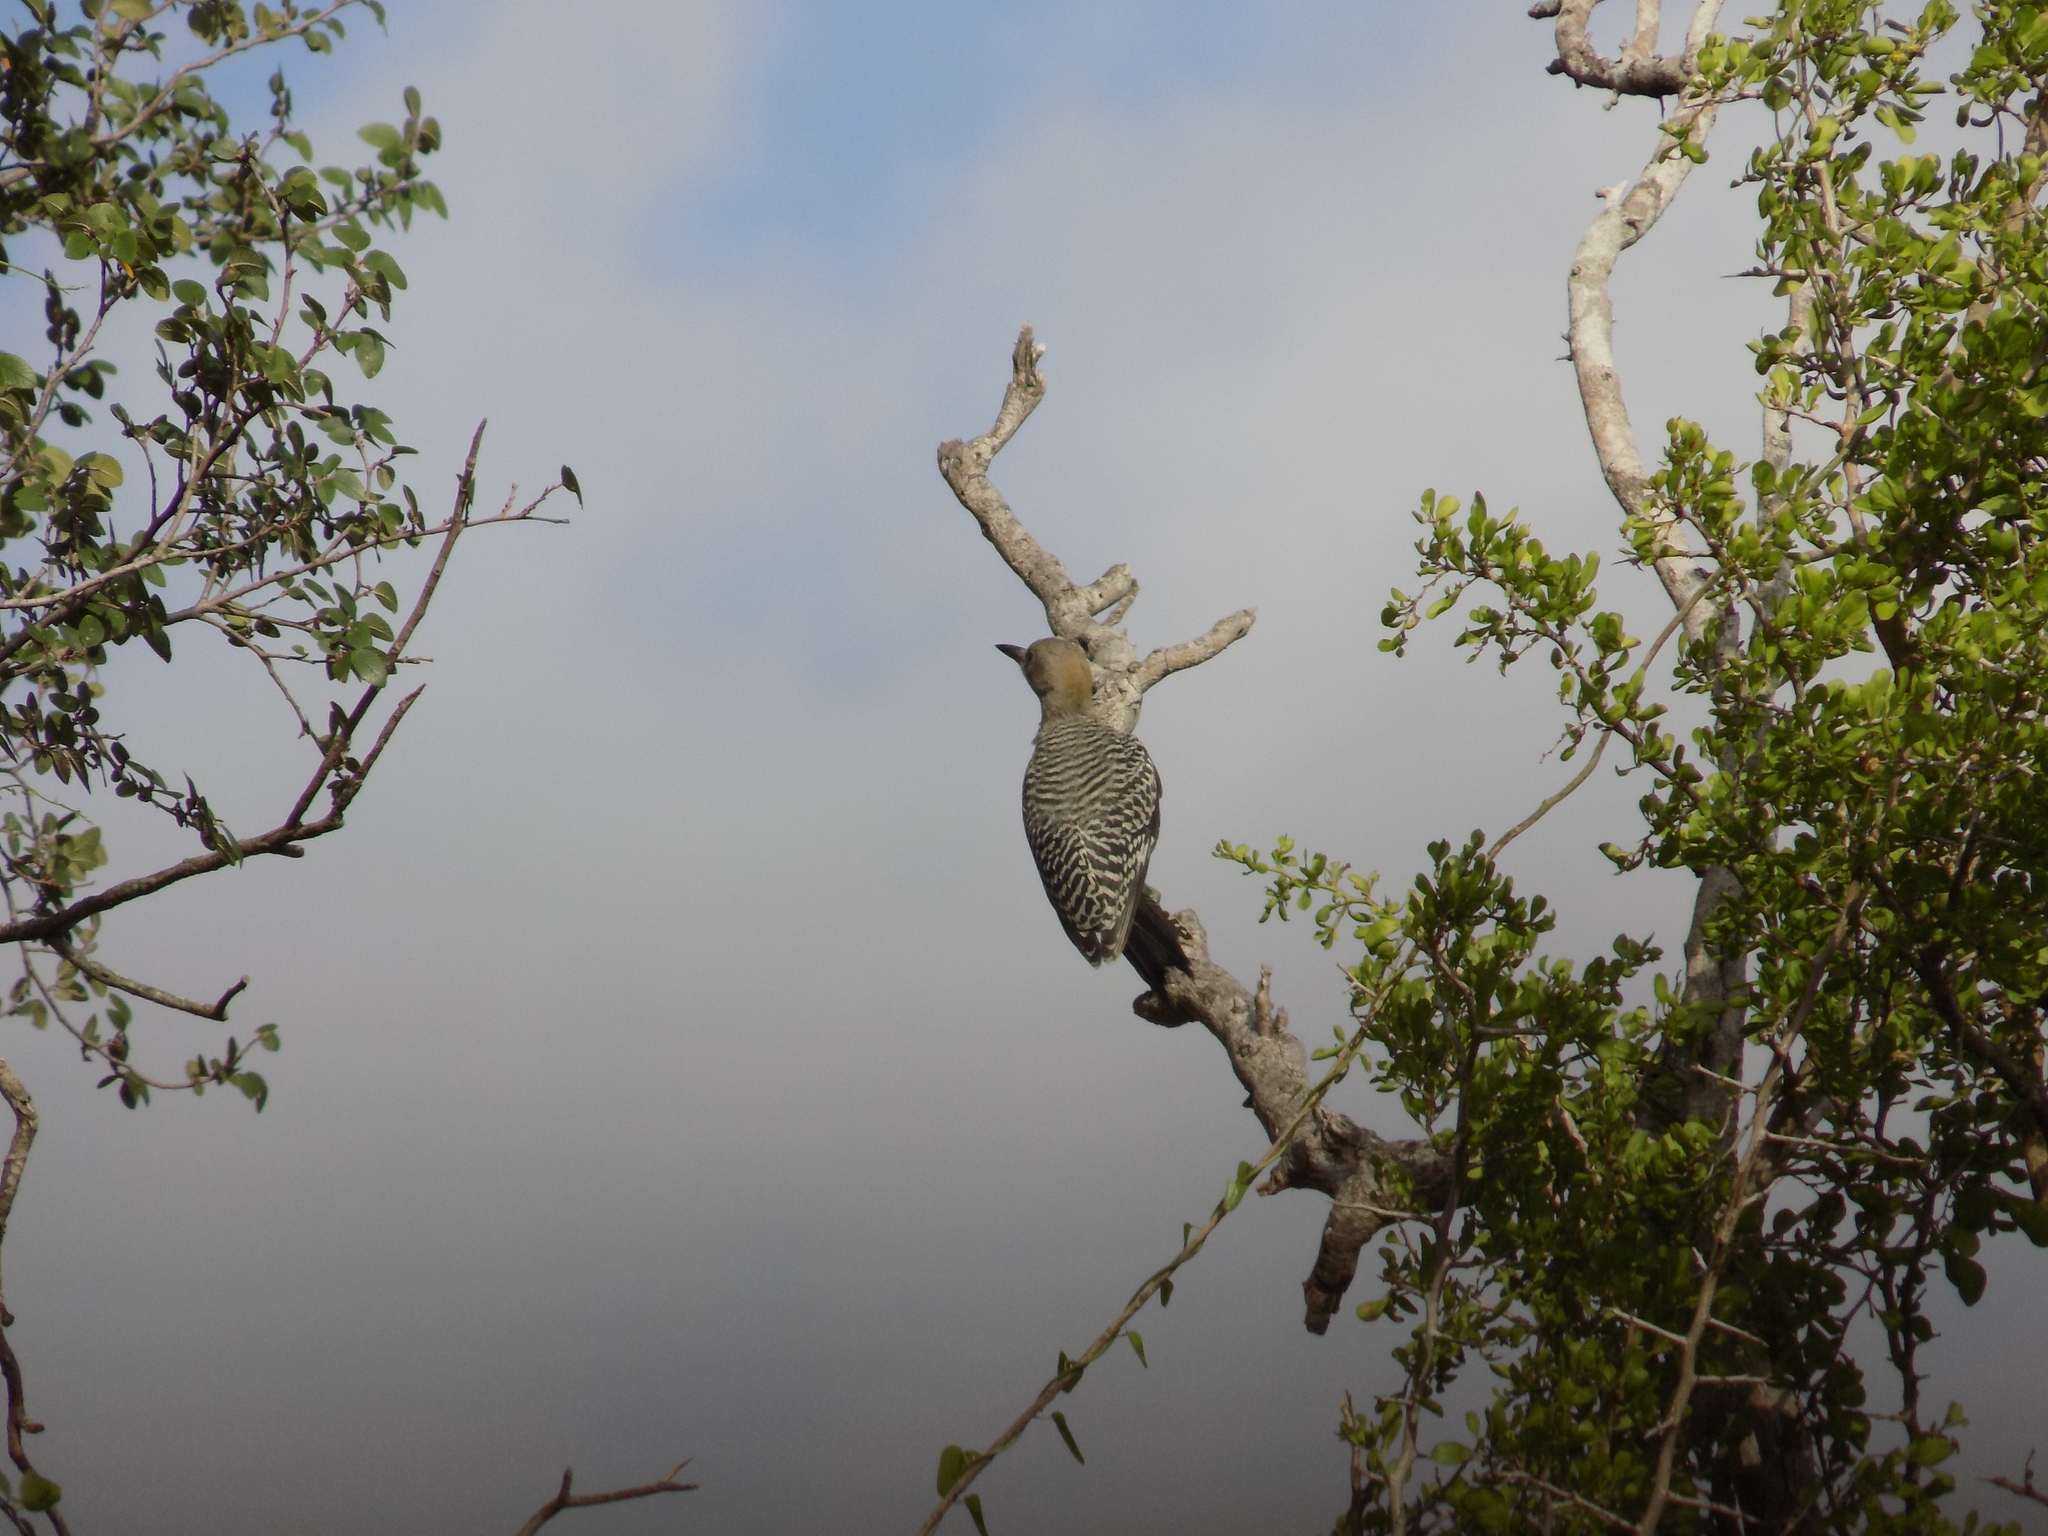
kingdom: Animalia
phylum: Chordata
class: Aves
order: Piciformes
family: Picidae
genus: Melanerpes
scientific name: Melanerpes aurifrons
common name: Golden-fronted woodpecker
